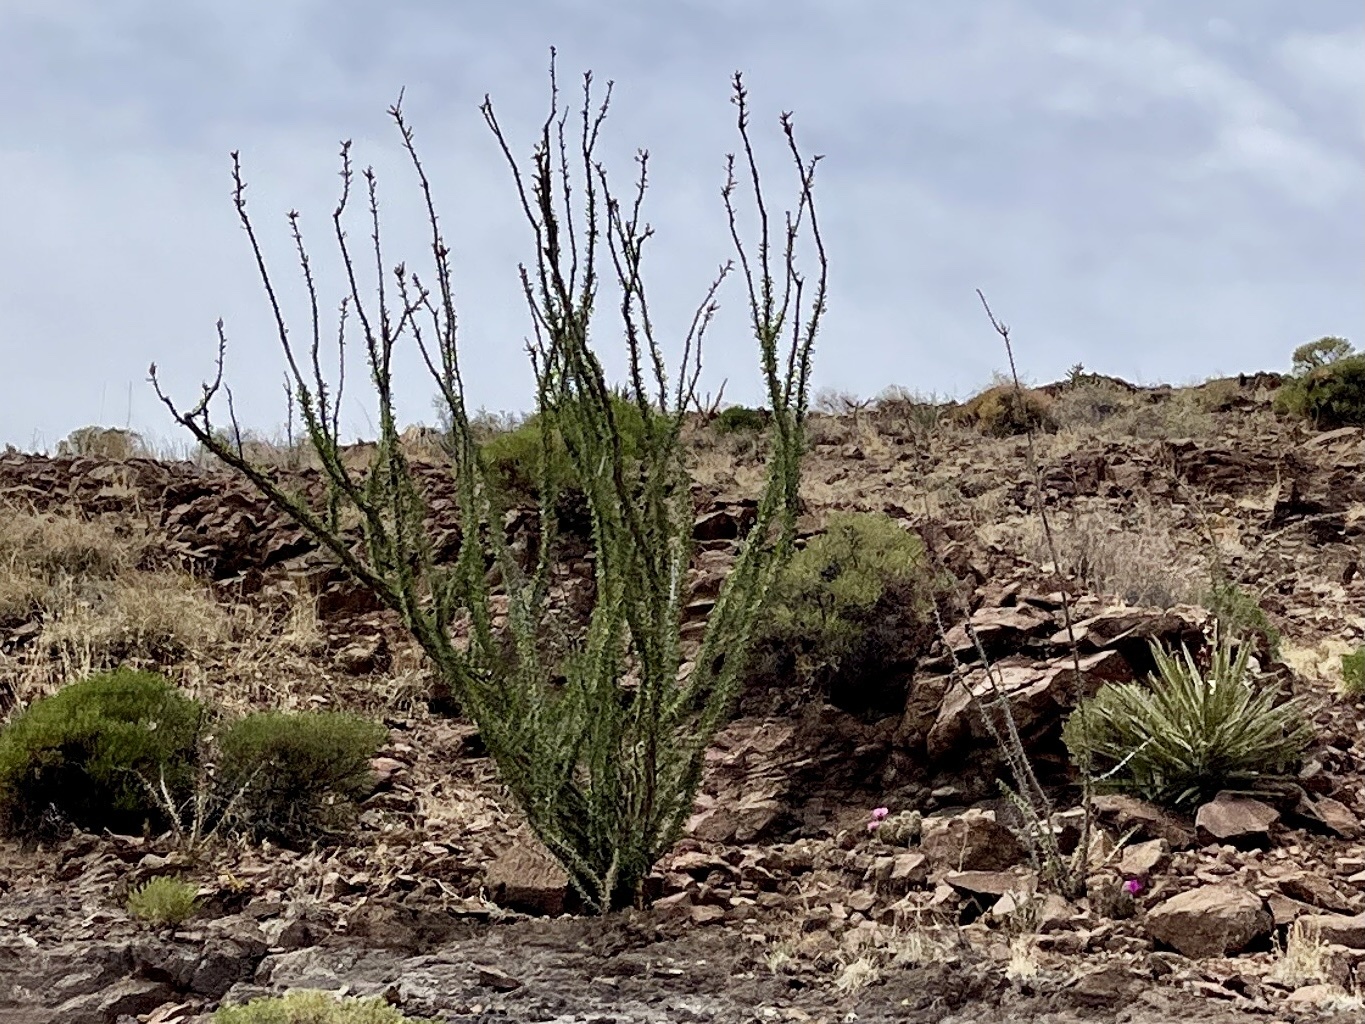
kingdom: Plantae
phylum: Tracheophyta
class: Magnoliopsida
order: Ericales
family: Fouquieriaceae
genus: Fouquieria
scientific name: Fouquieria splendens
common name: Vine-cactus
